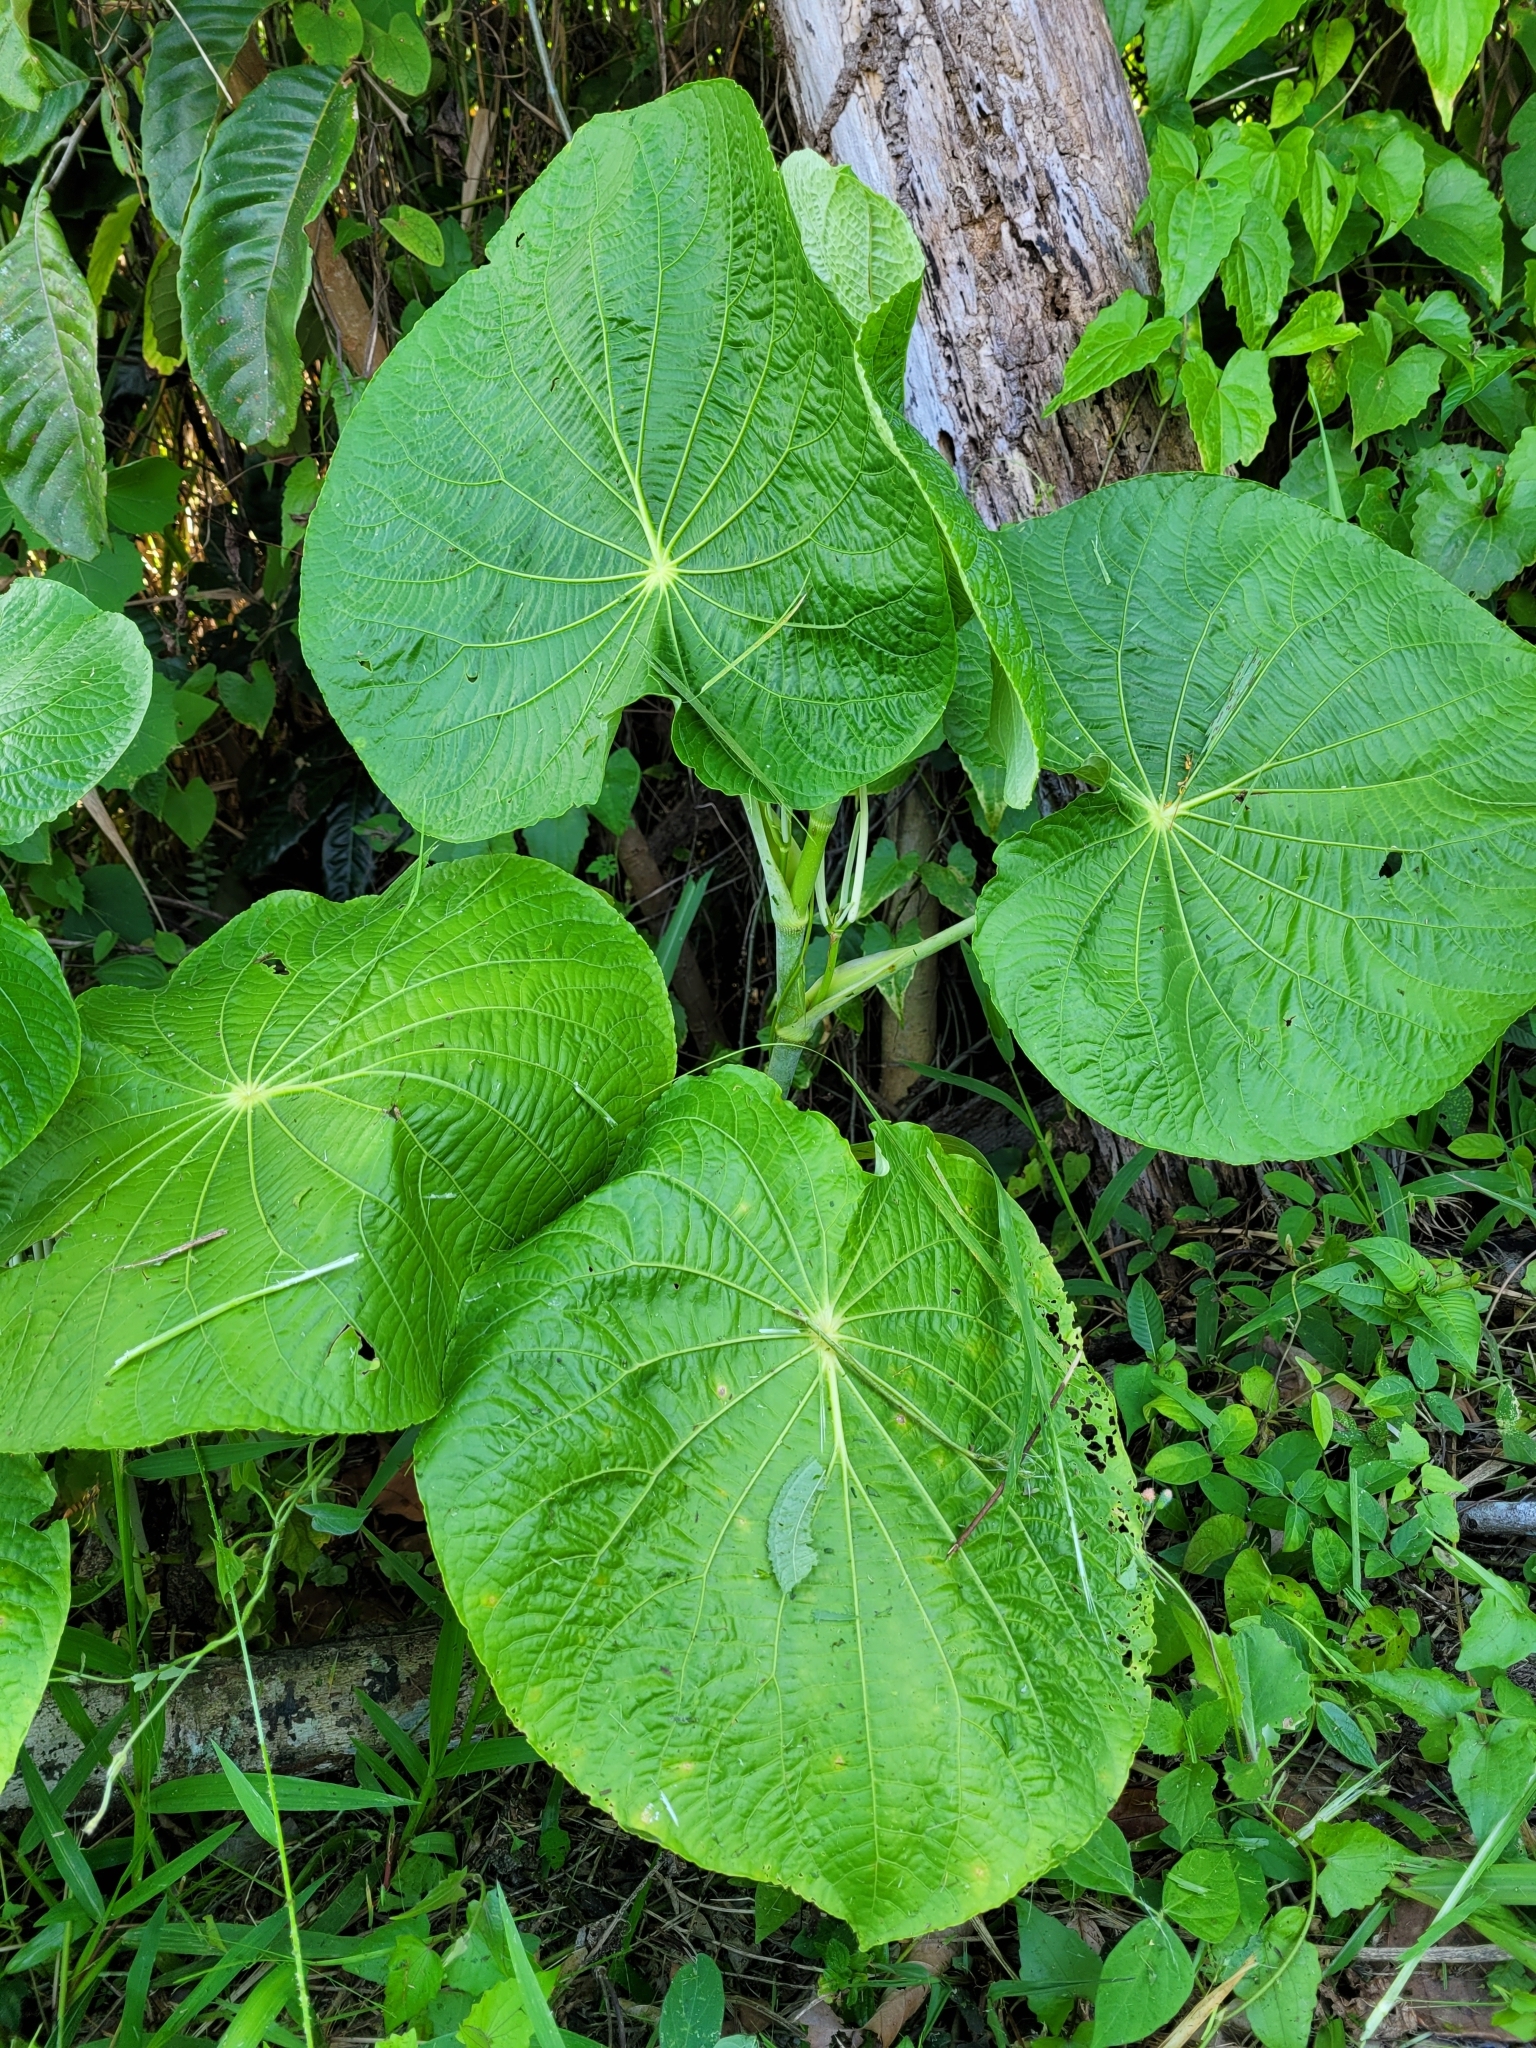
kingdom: Plantae
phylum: Tracheophyta
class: Magnoliopsida
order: Piperales
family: Piperaceae
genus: Piper
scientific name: Piper peltatum
